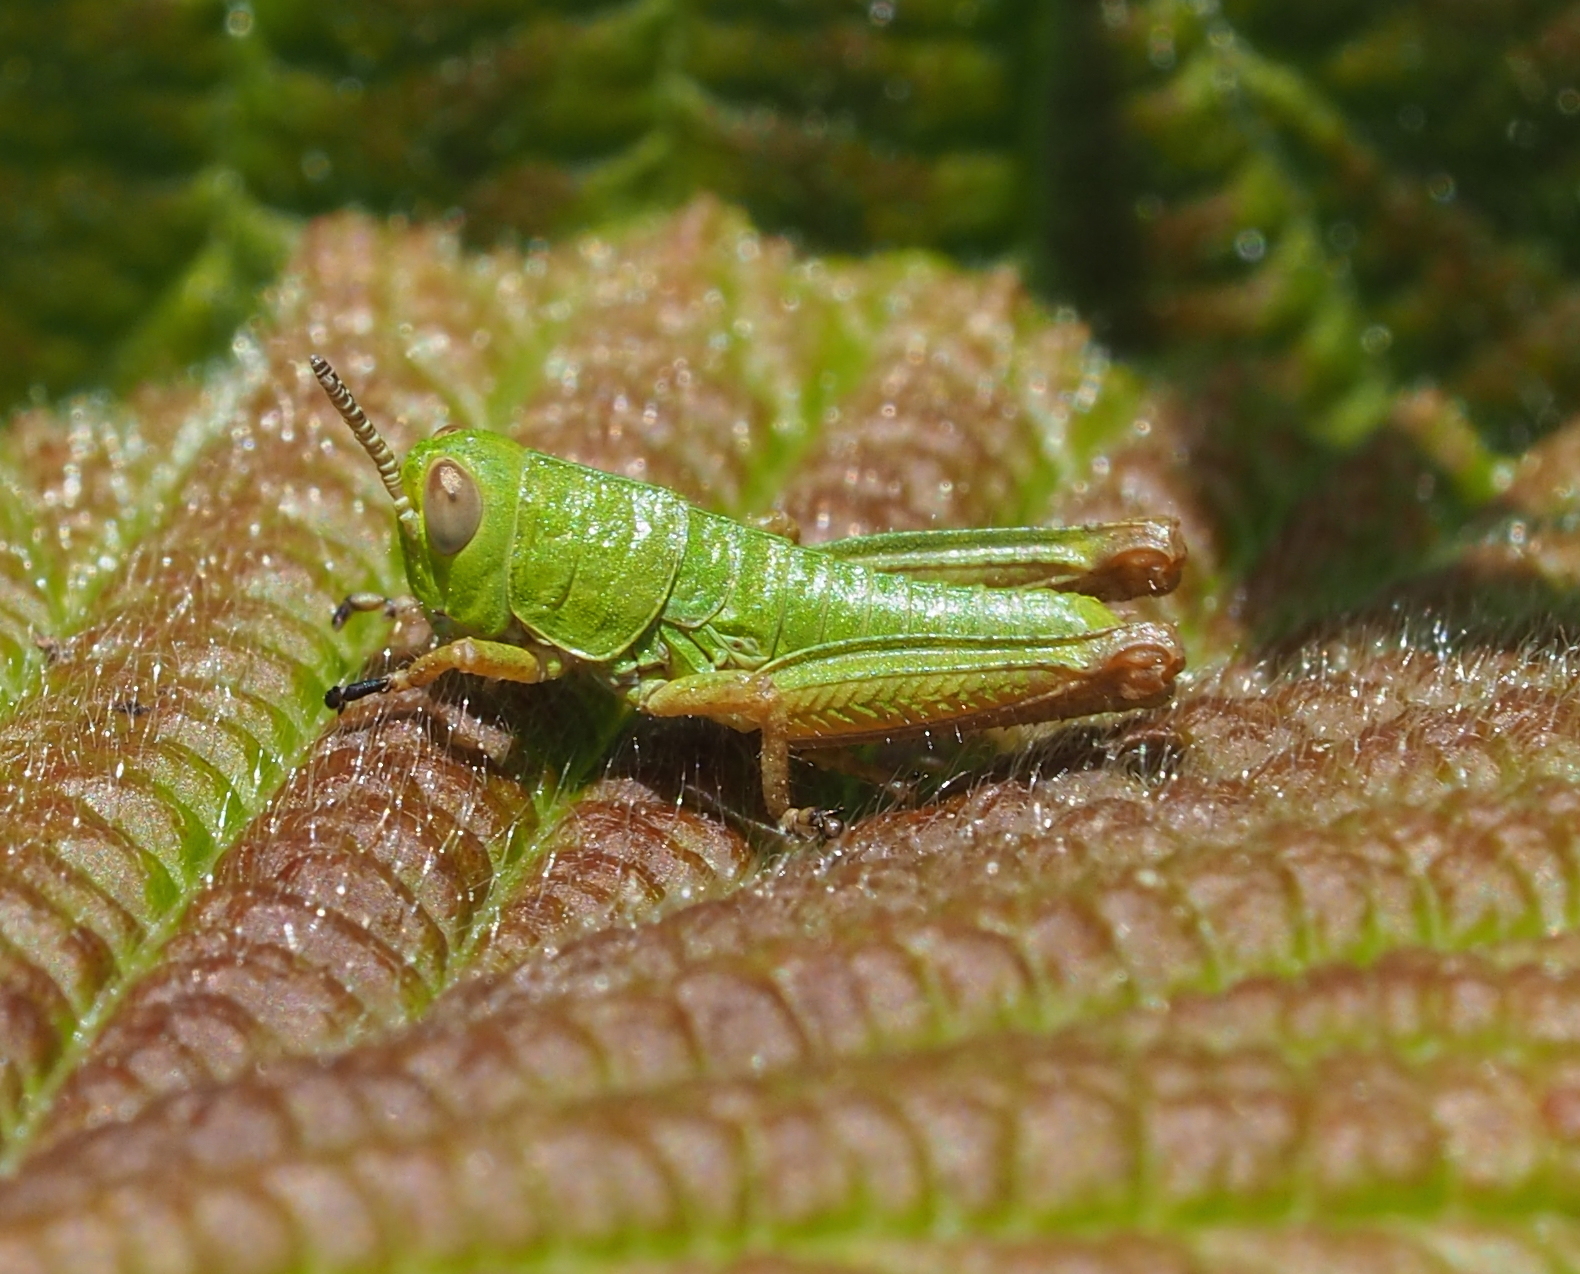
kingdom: Animalia
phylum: Arthropoda
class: Insecta
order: Orthoptera
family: Acrididae
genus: Odontopodisma
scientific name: Odontopodisma decipiens
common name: Cheating mountain grasshopper
